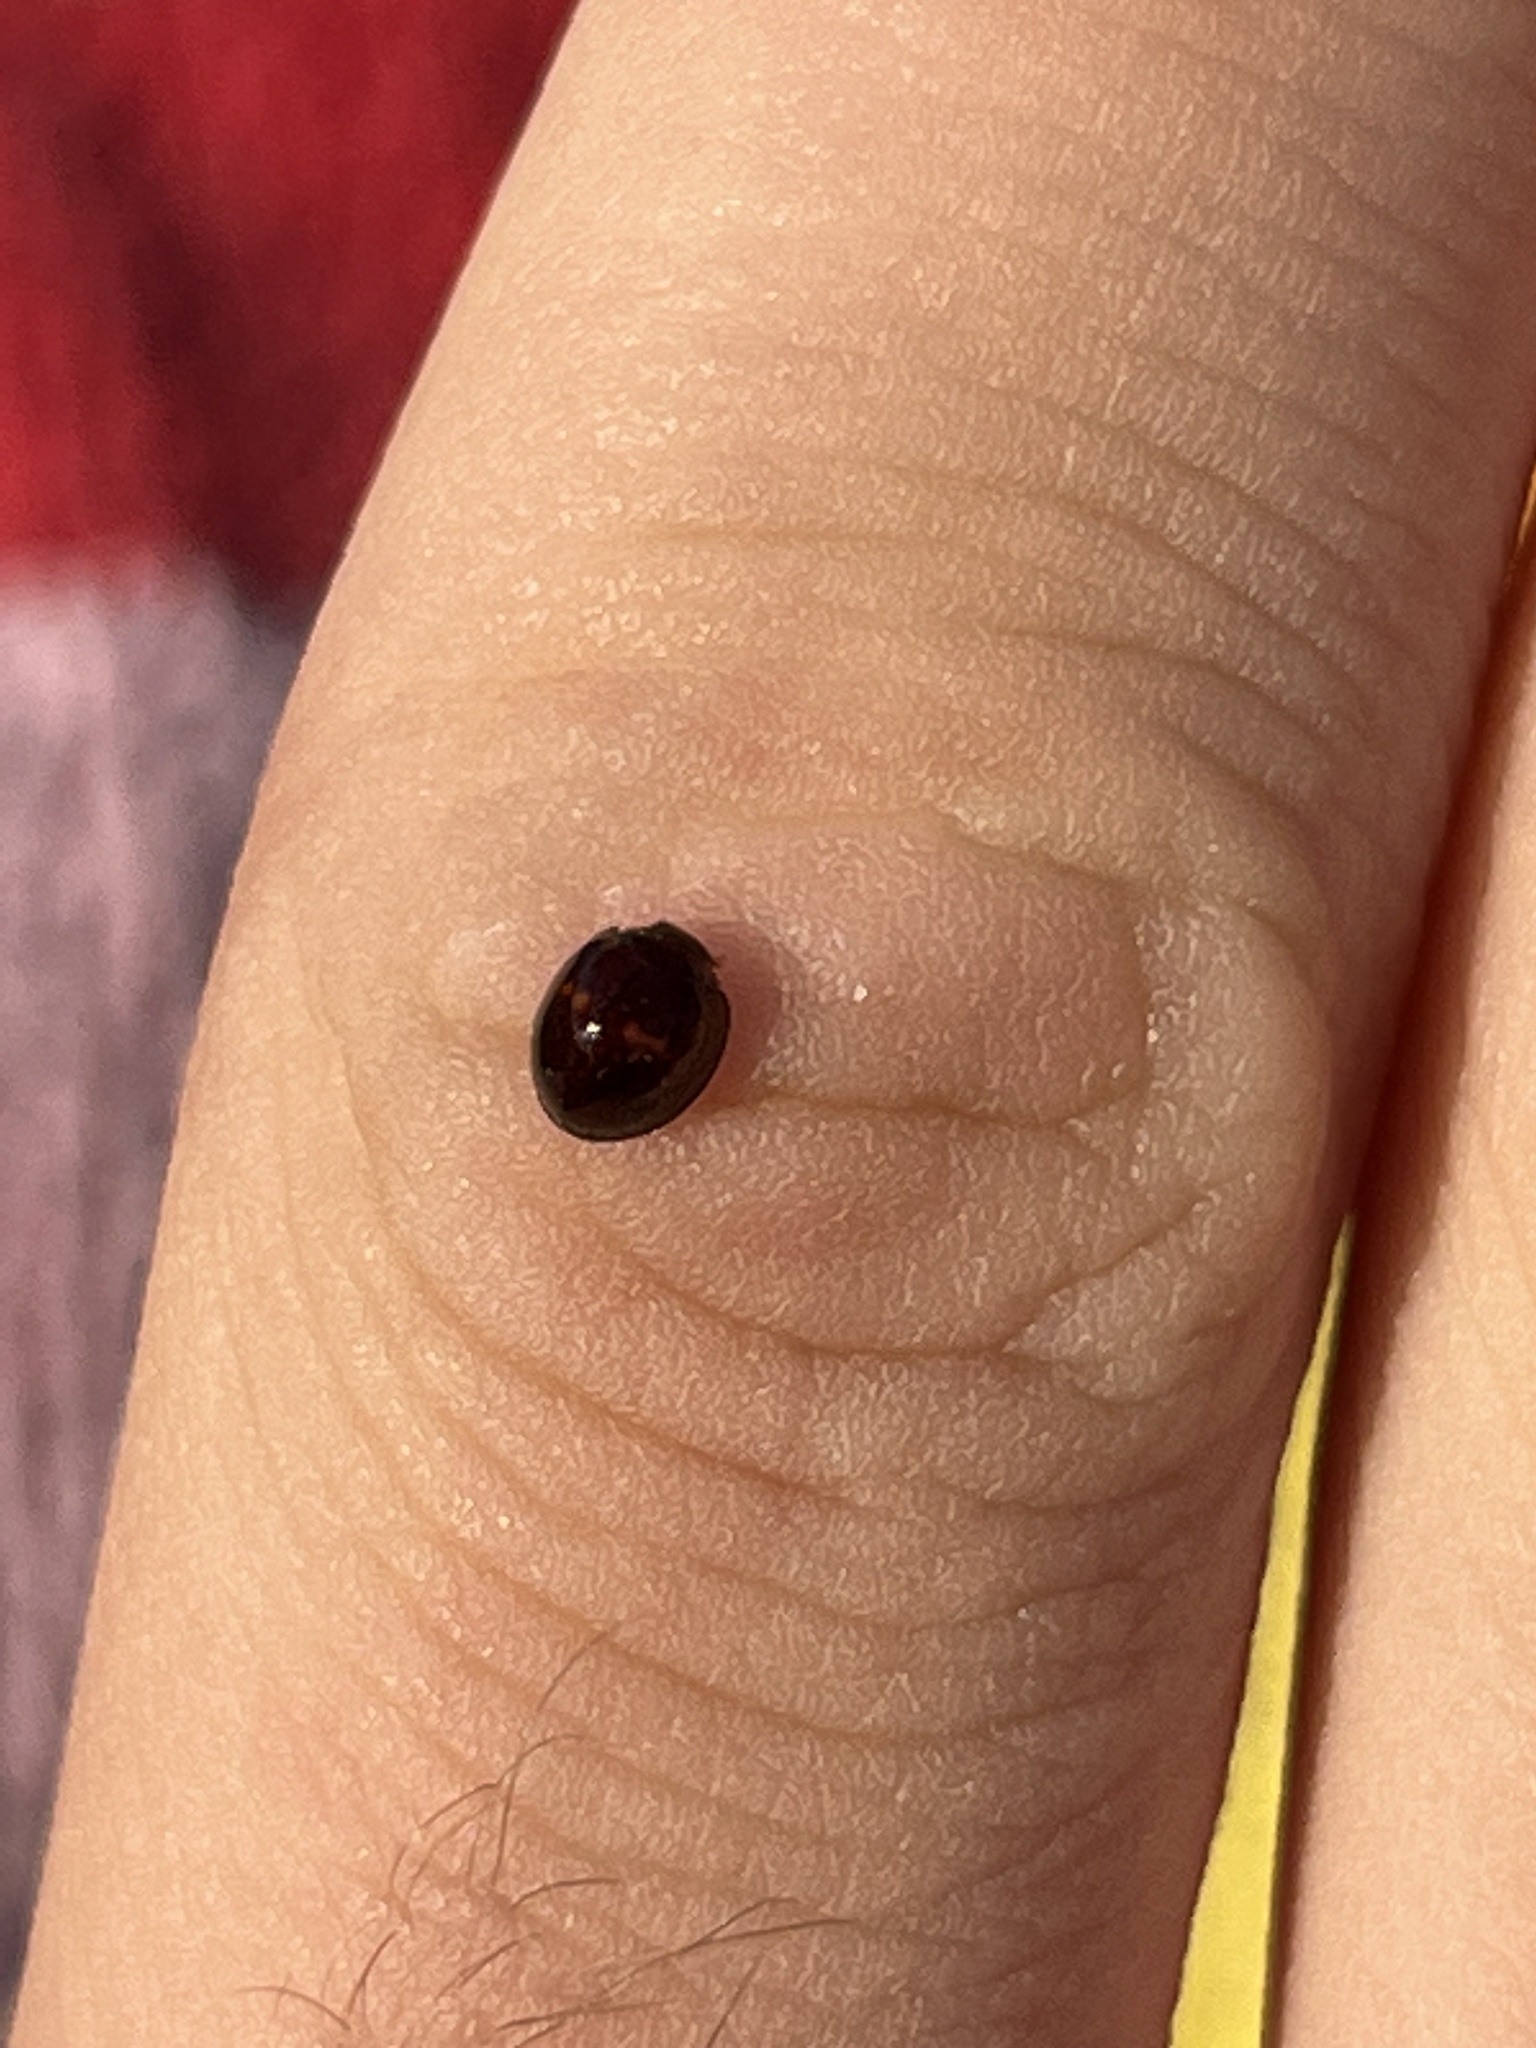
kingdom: Animalia
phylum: Arthropoda
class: Insecta
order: Coleoptera
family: Coccinellidae
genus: Chilocorus
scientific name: Chilocorus bipustulatus
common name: Heather ladybird
